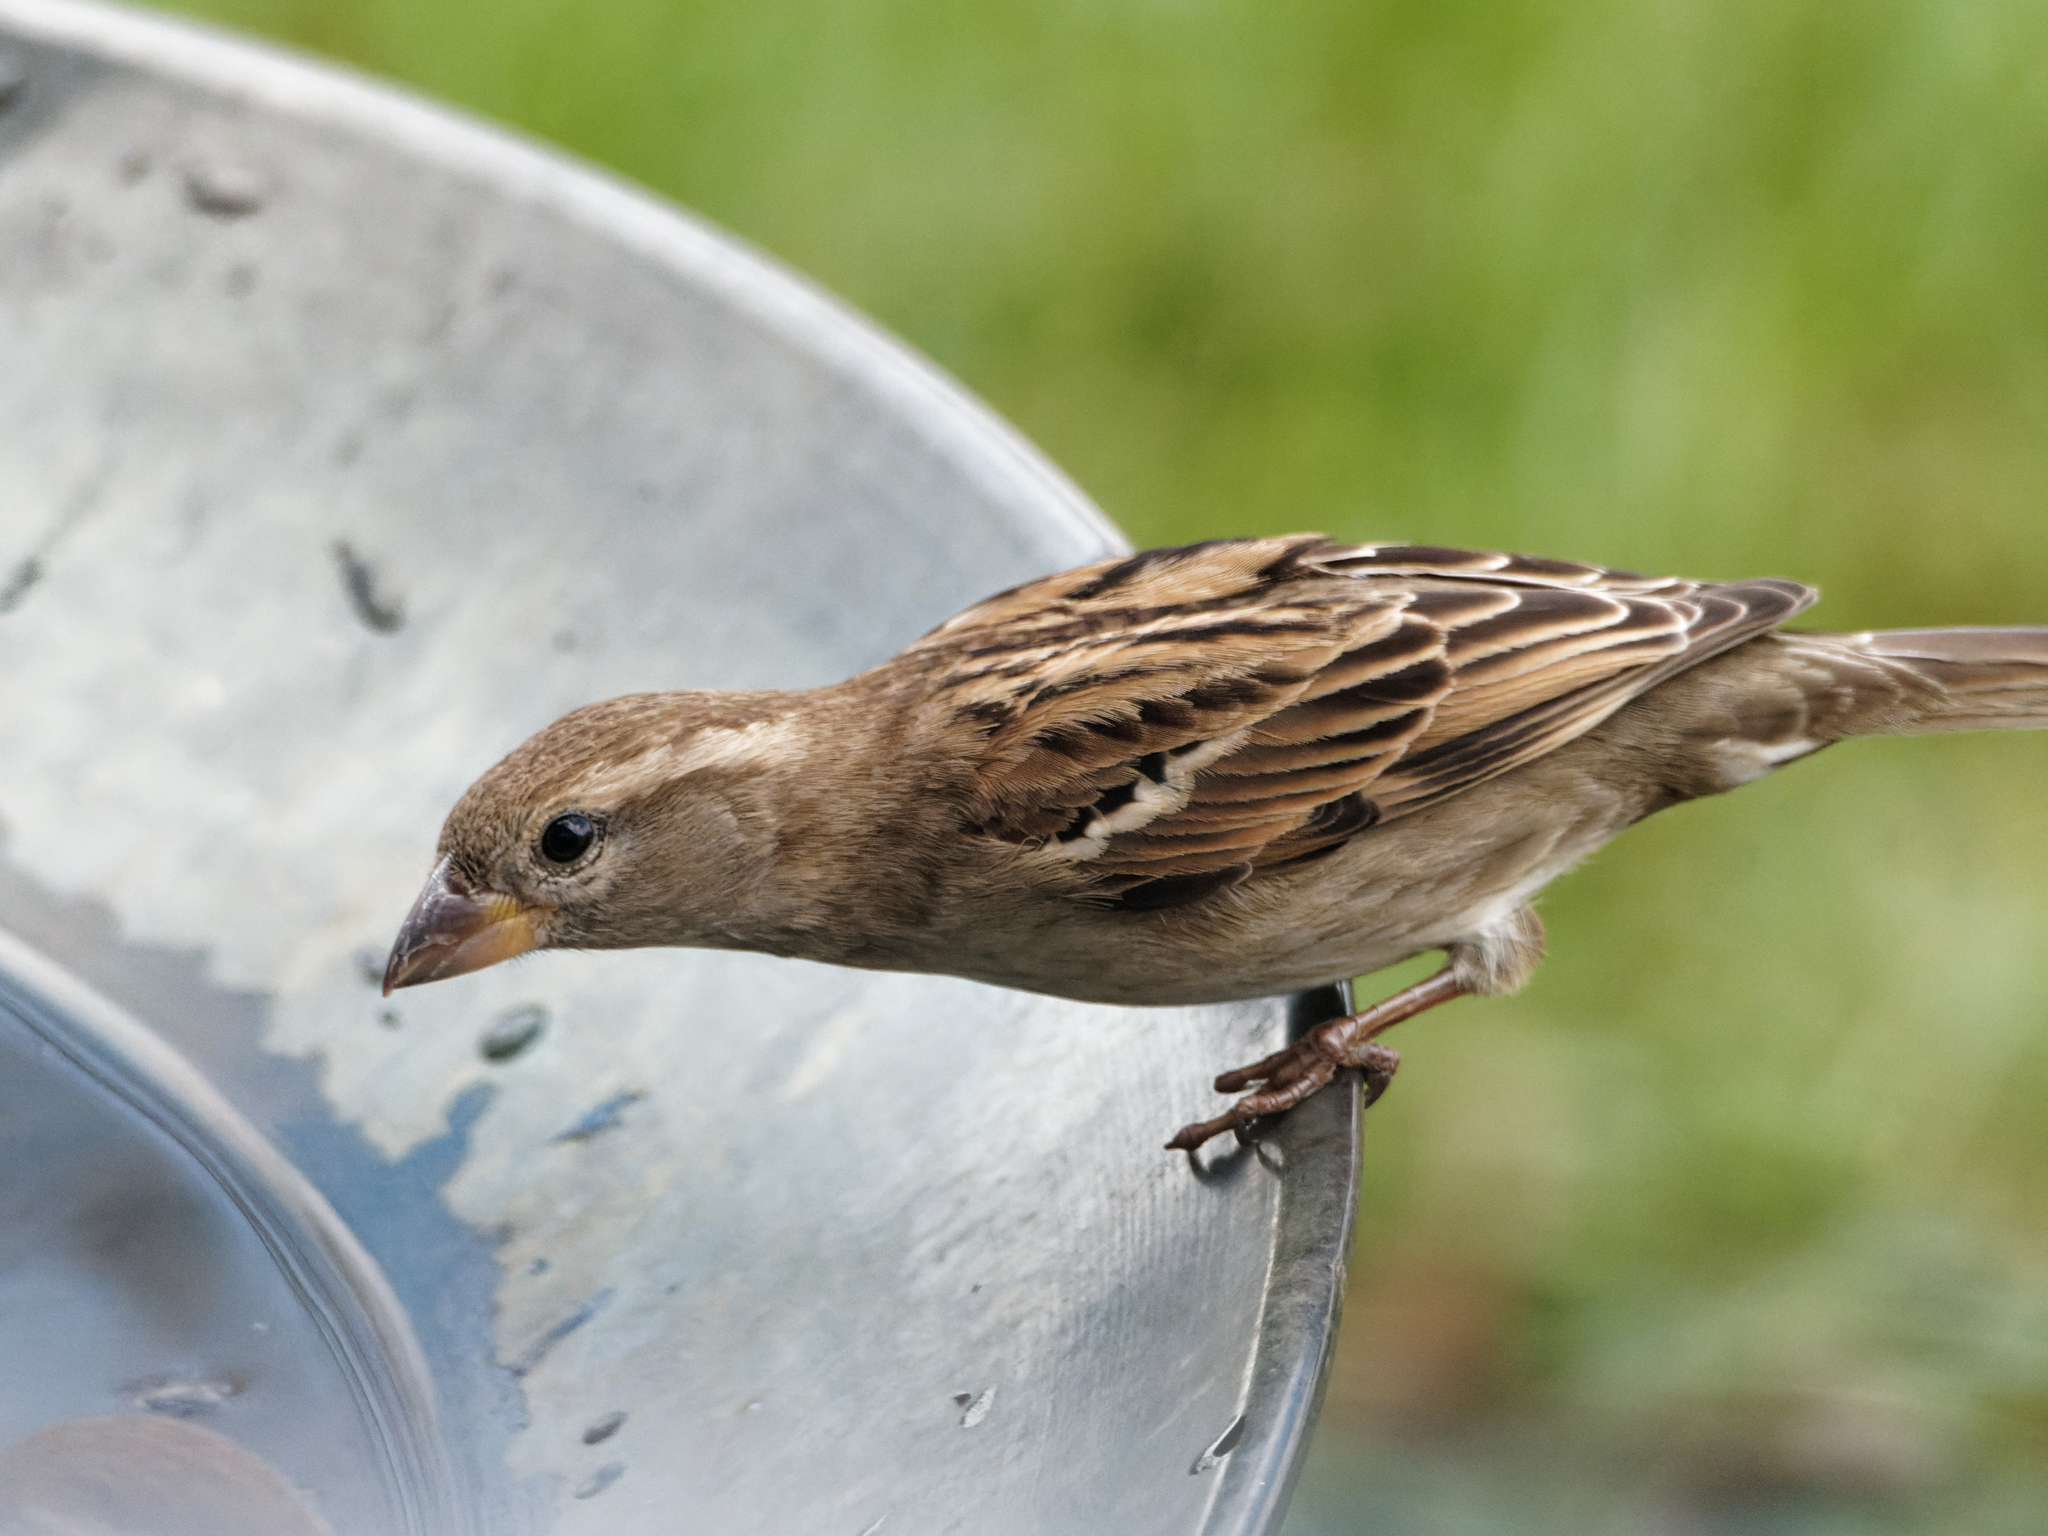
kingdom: Animalia
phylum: Chordata
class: Aves
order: Passeriformes
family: Passeridae
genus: Passer
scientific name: Passer domesticus
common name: House sparrow
